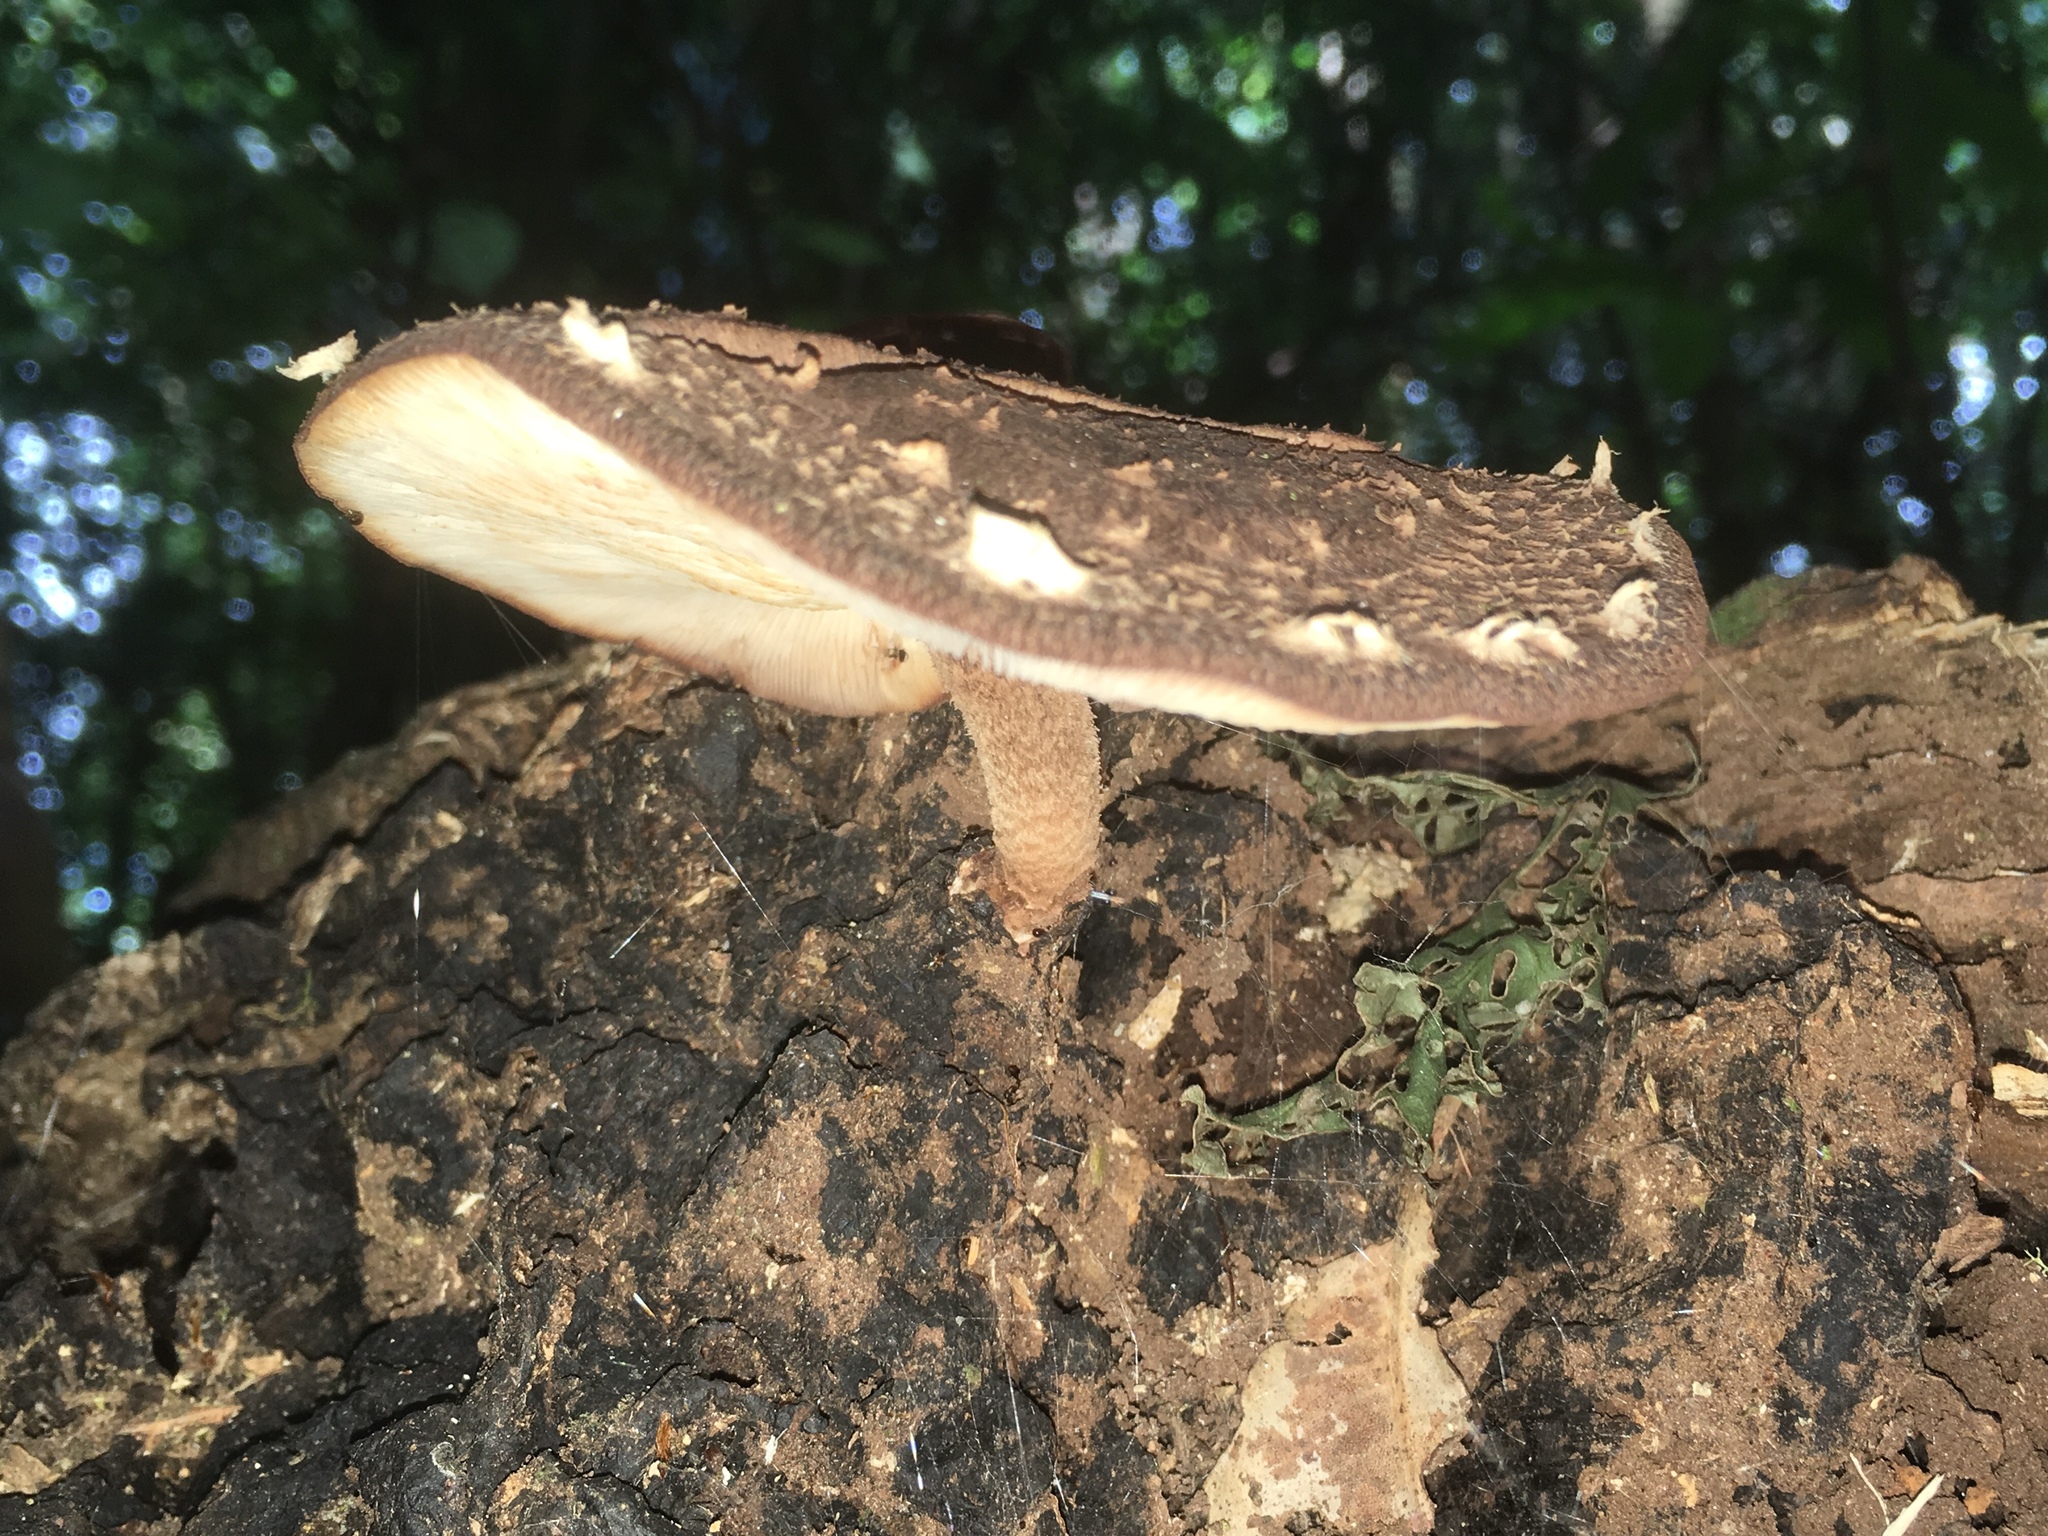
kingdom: Fungi
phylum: Basidiomycota
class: Agaricomycetes
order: Agaricales
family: Omphalotaceae
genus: Lentinula
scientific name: Lentinula novae-zelandiae
